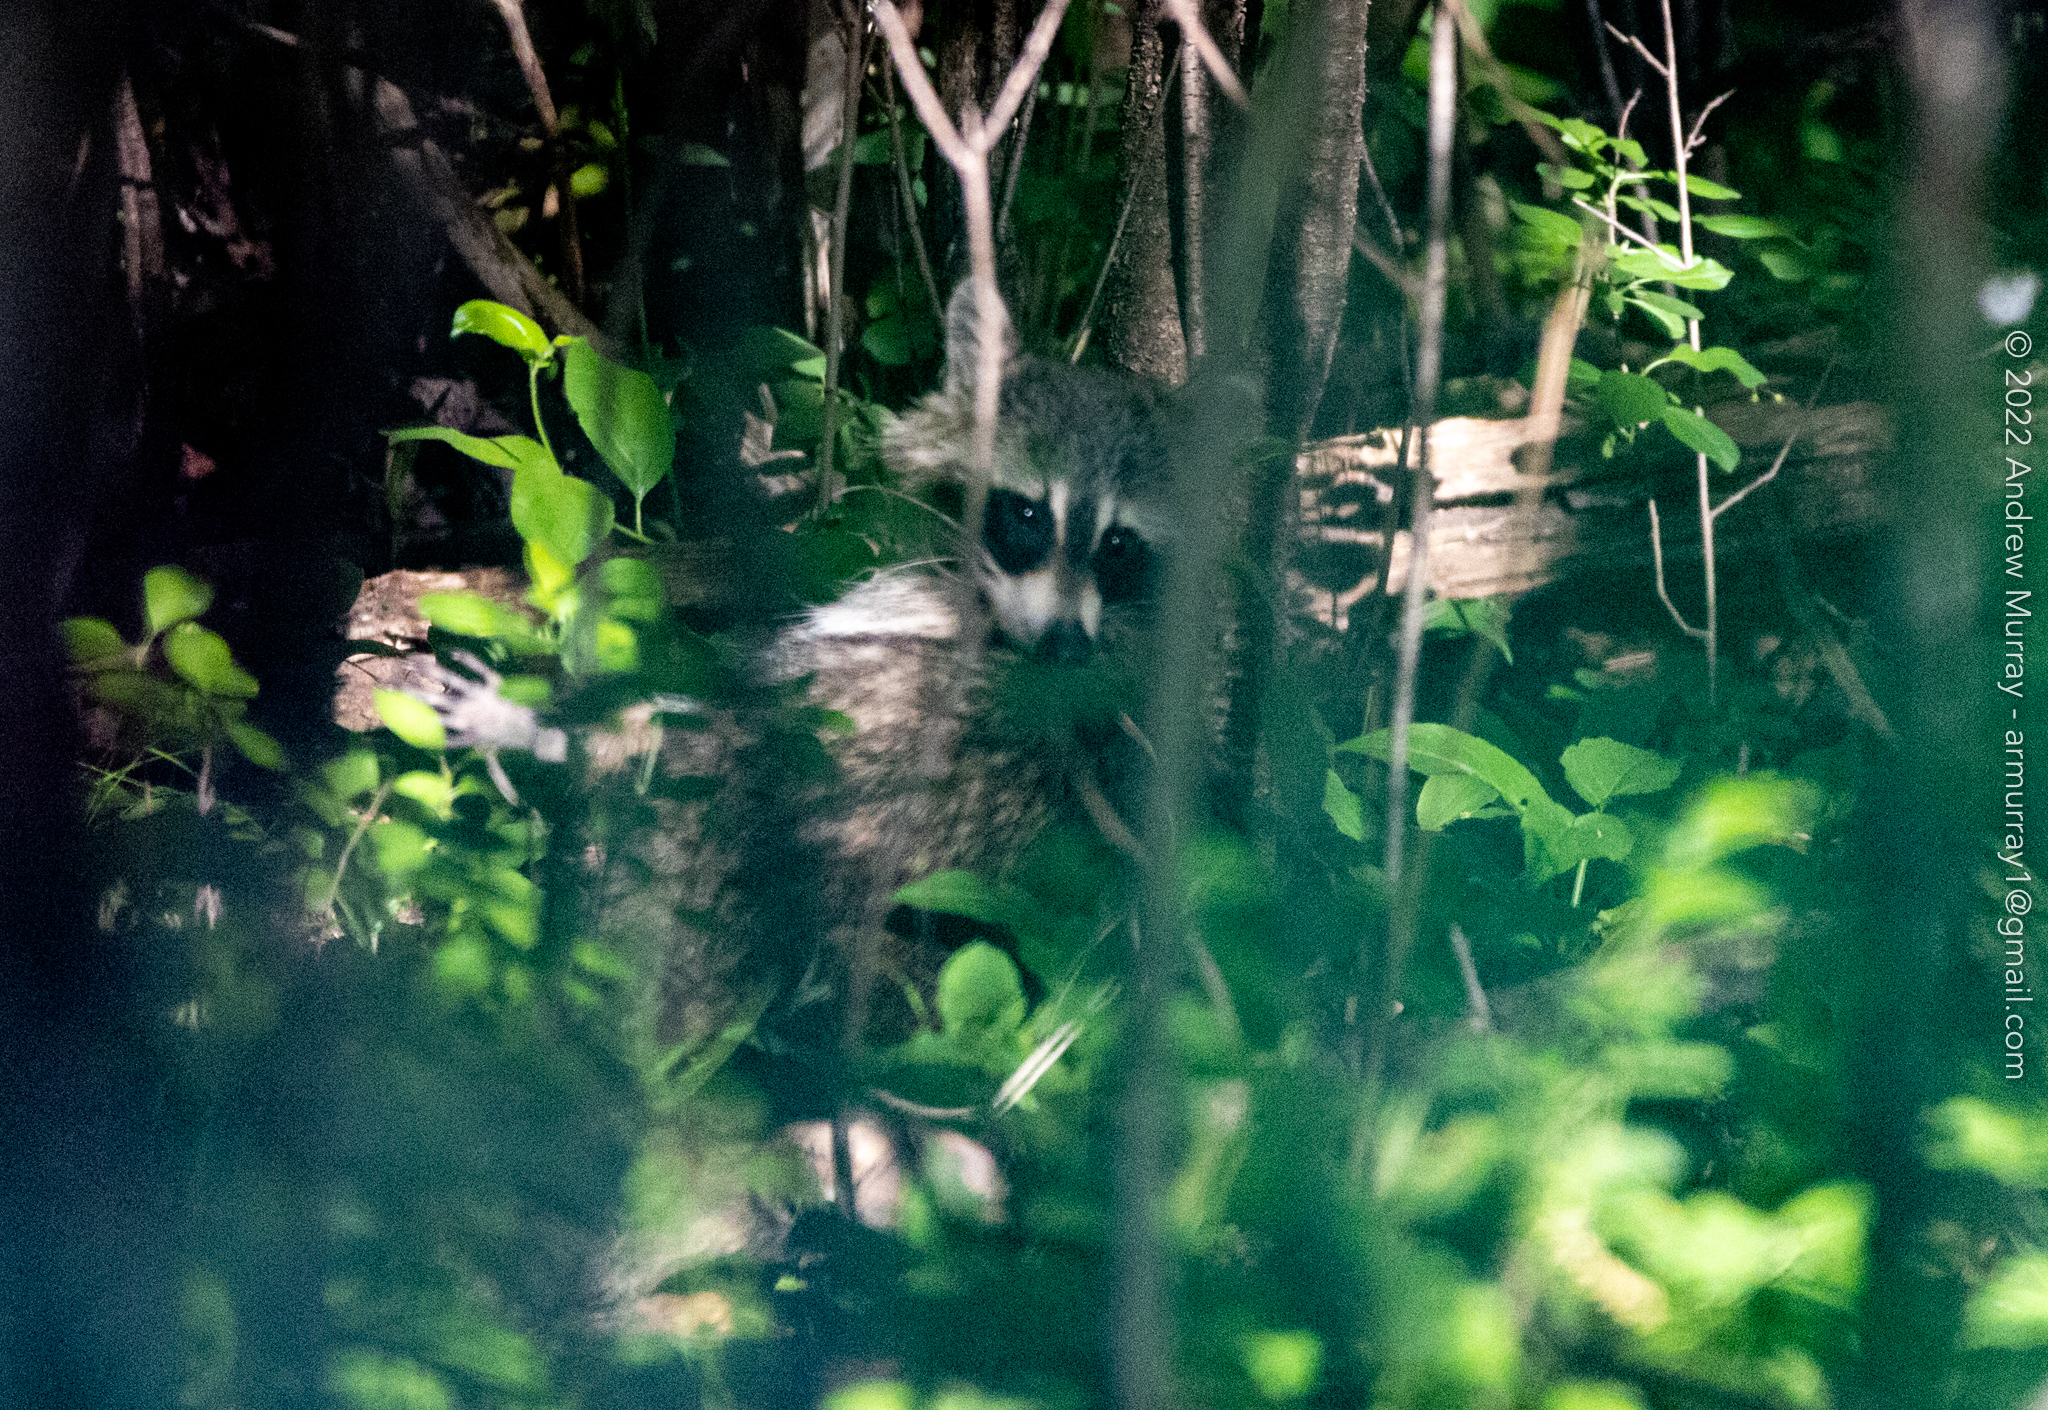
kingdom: Animalia
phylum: Chordata
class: Mammalia
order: Carnivora
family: Procyonidae
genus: Procyon
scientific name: Procyon lotor
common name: Raccoon
